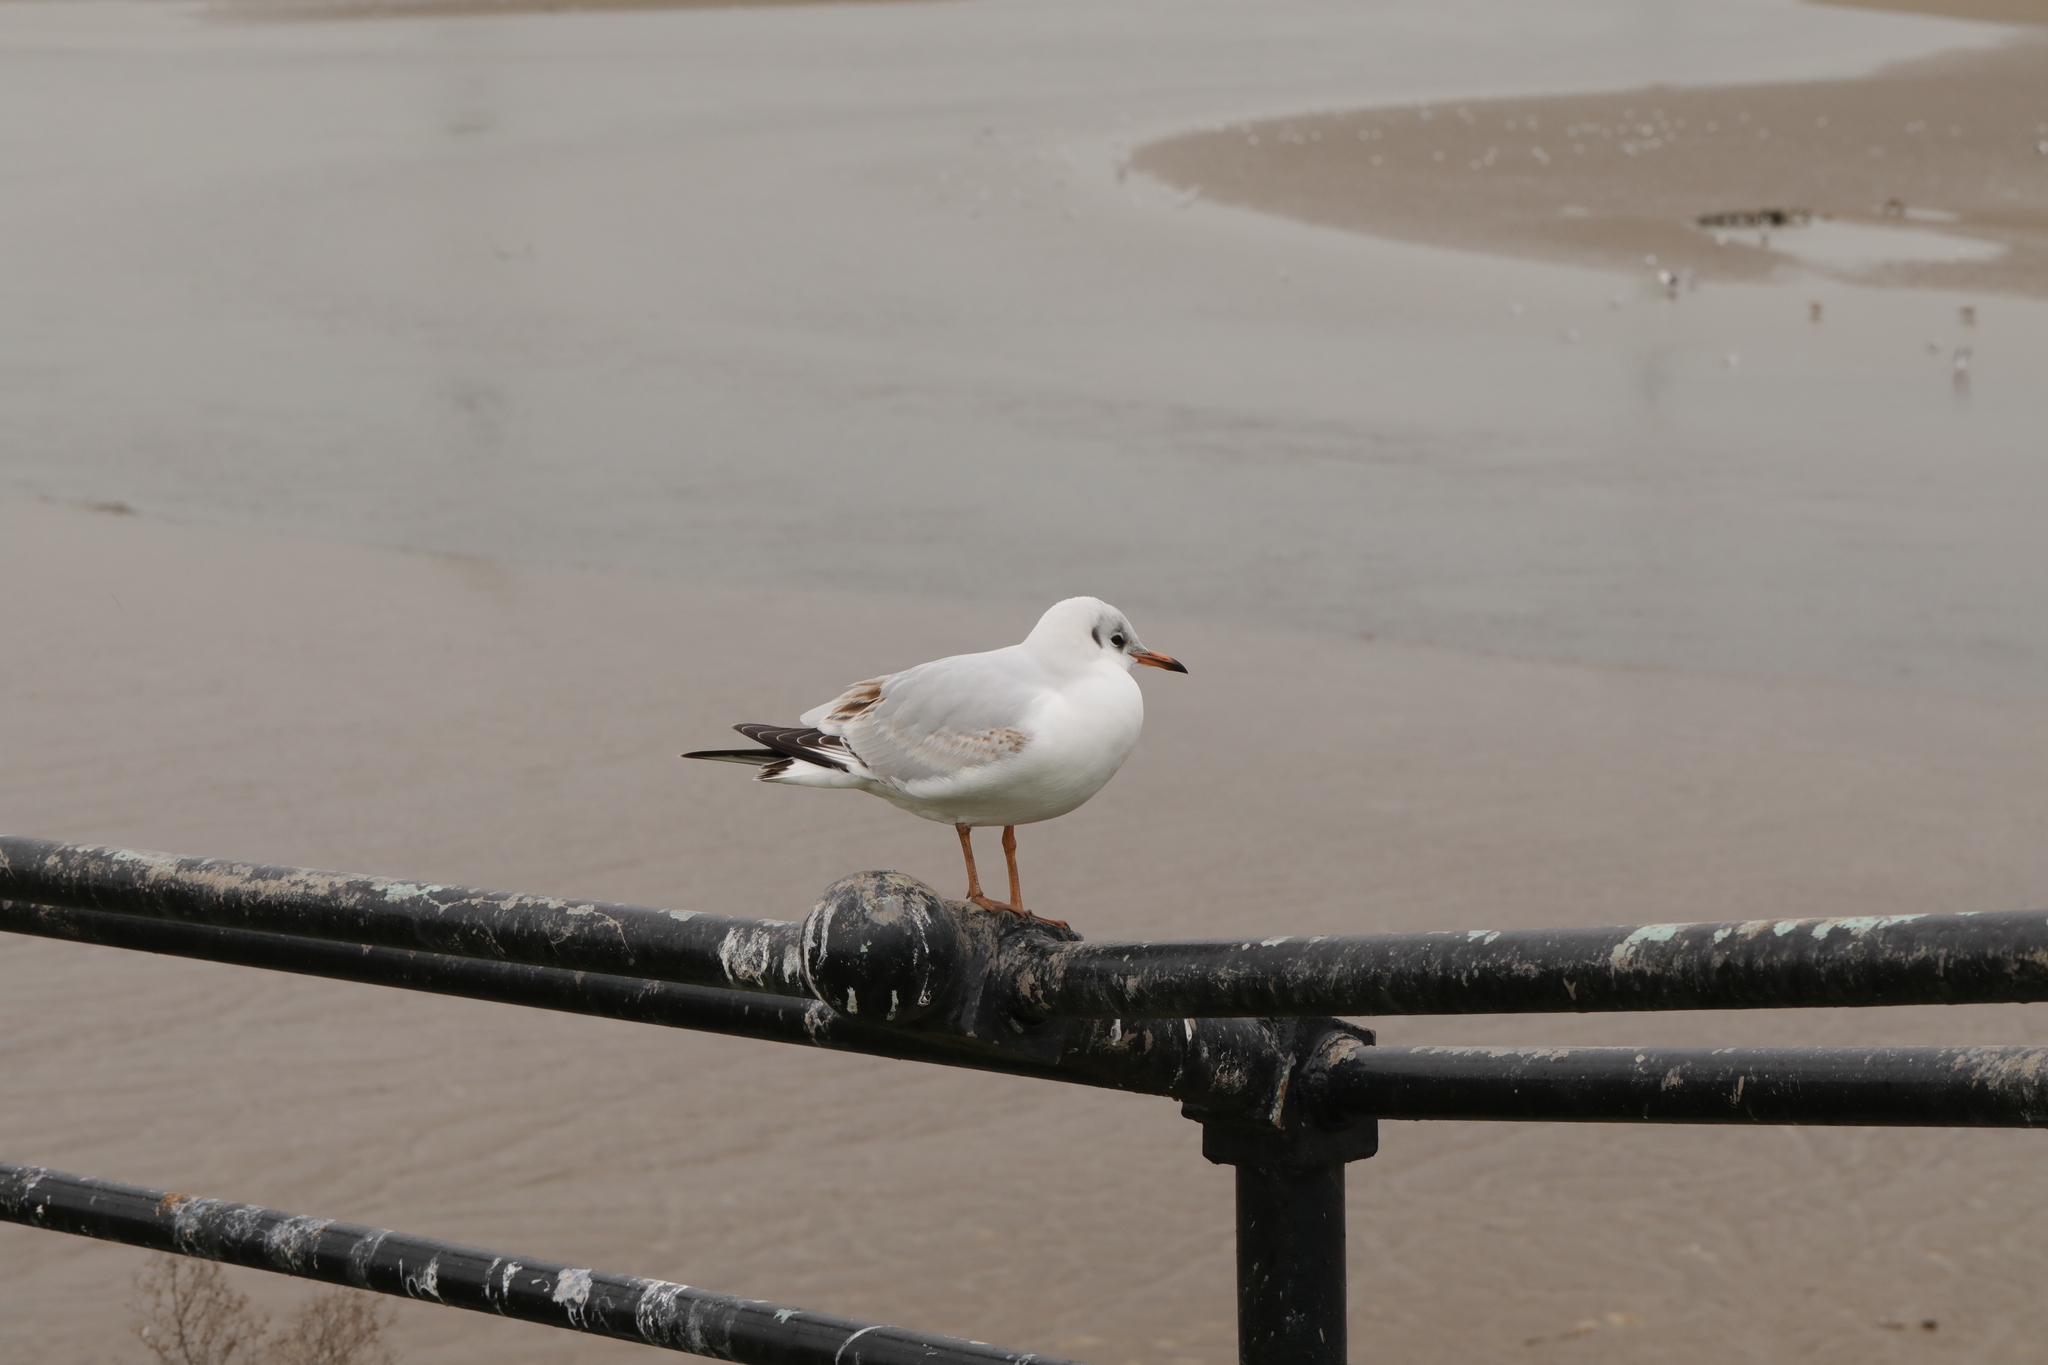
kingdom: Animalia
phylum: Chordata
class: Aves
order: Charadriiformes
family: Laridae
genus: Chroicocephalus
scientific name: Chroicocephalus ridibundus
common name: Black-headed gull
